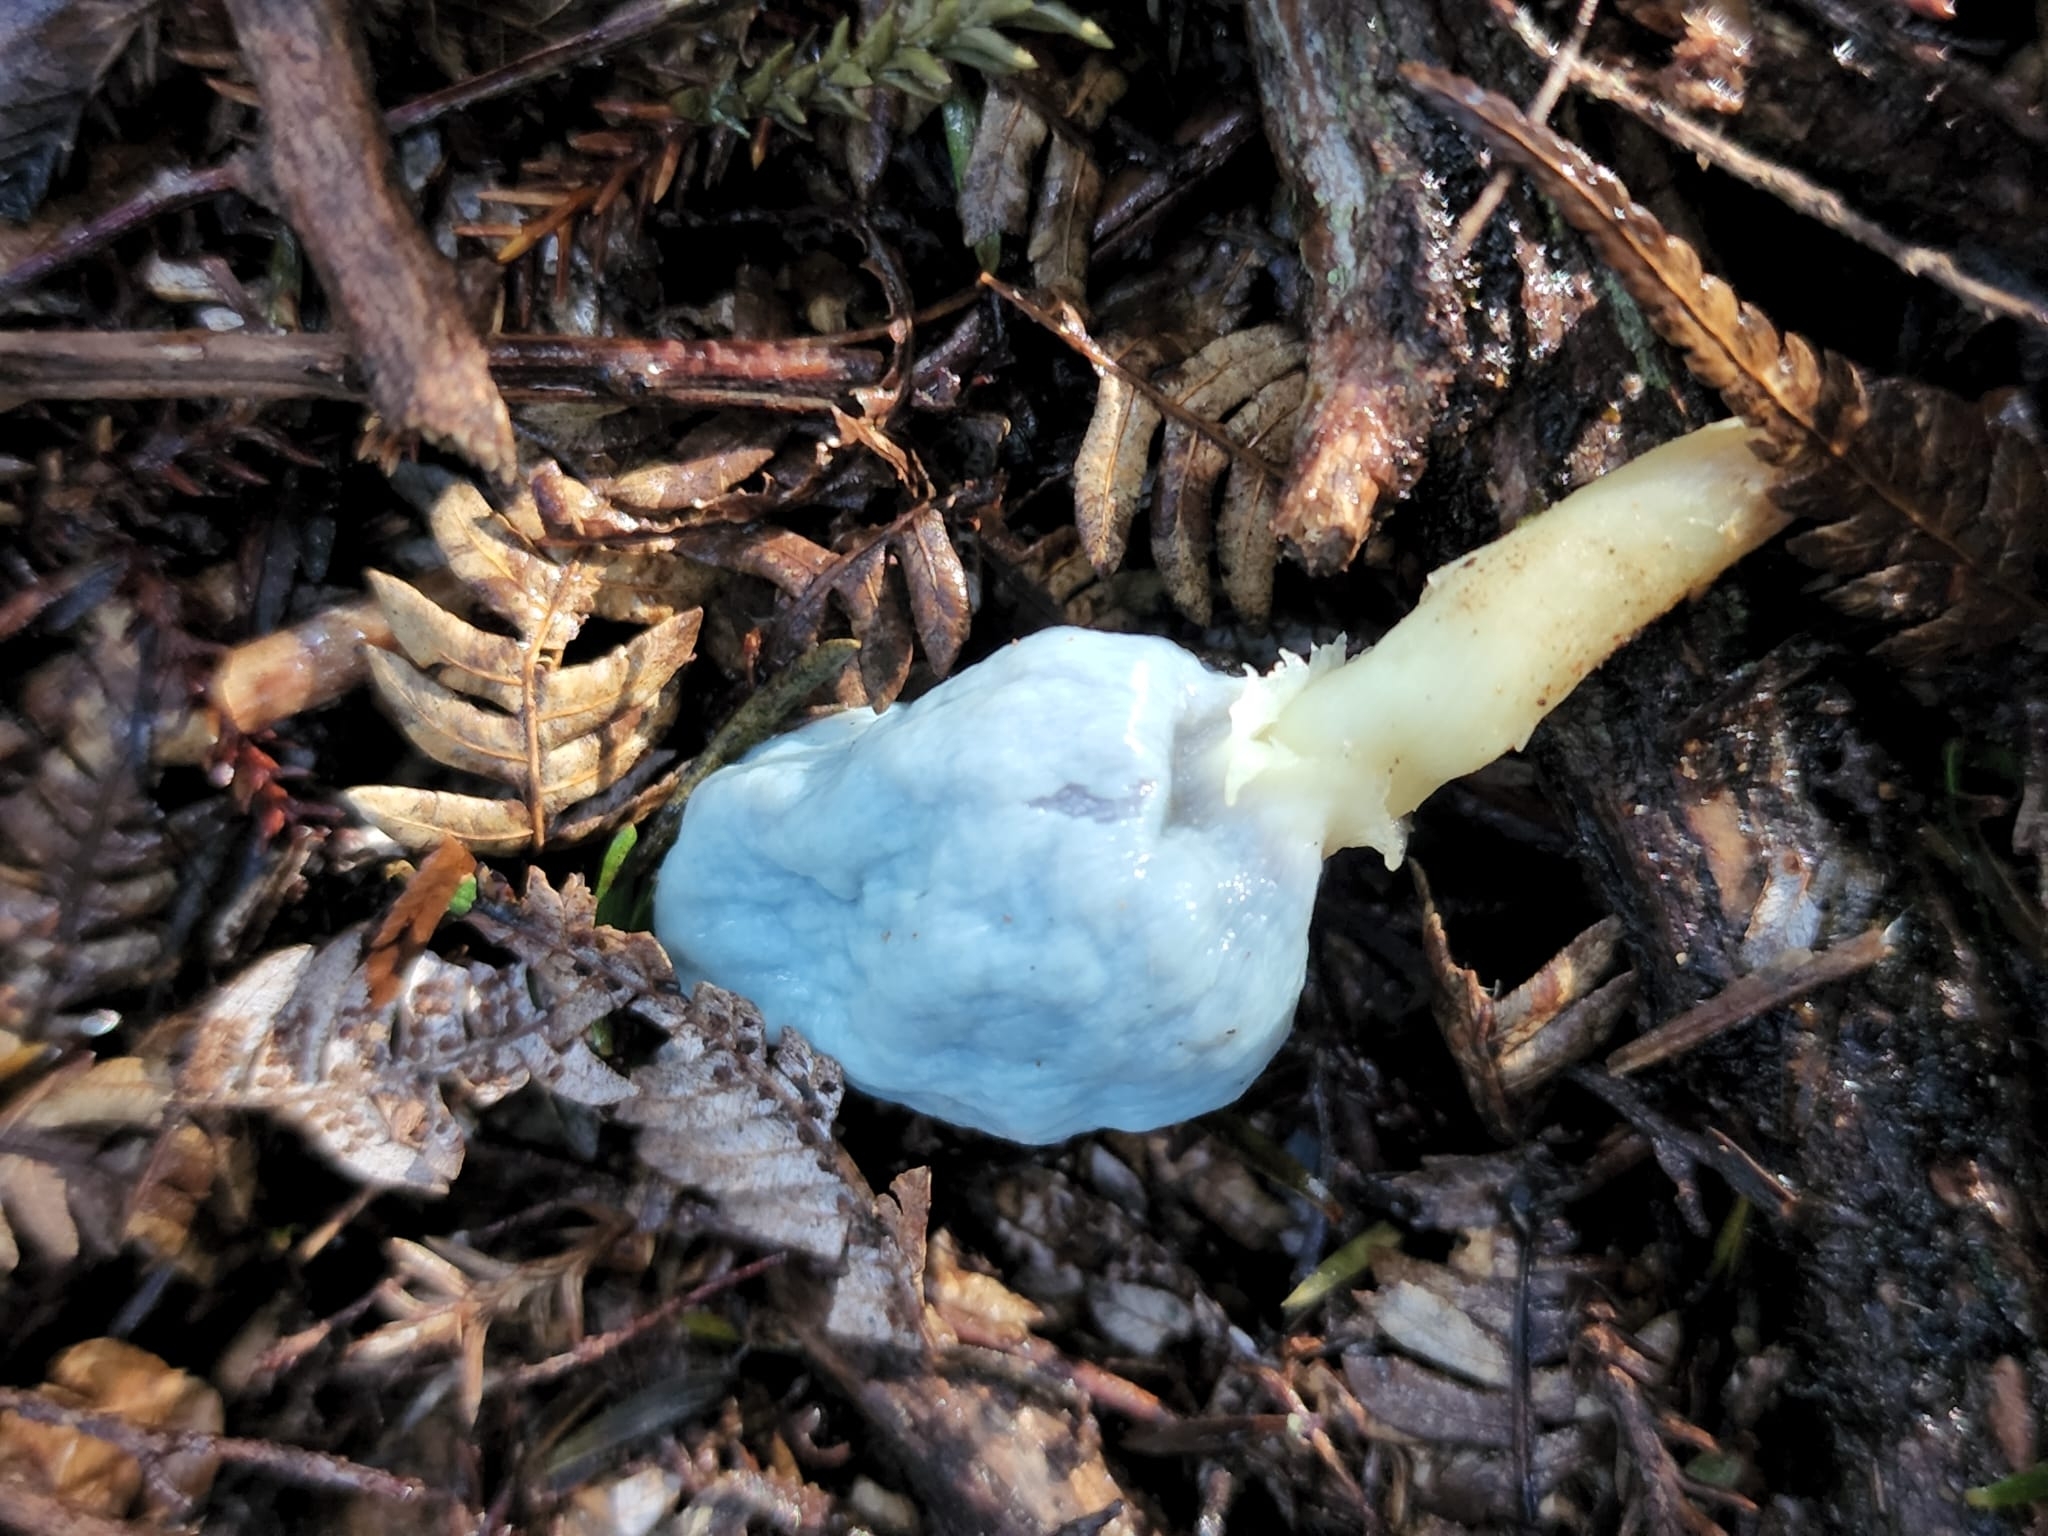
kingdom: Fungi
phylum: Basidiomycota
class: Agaricomycetes
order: Agaricales
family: Agaricaceae
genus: Clavogaster
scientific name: Clavogaster virescens
